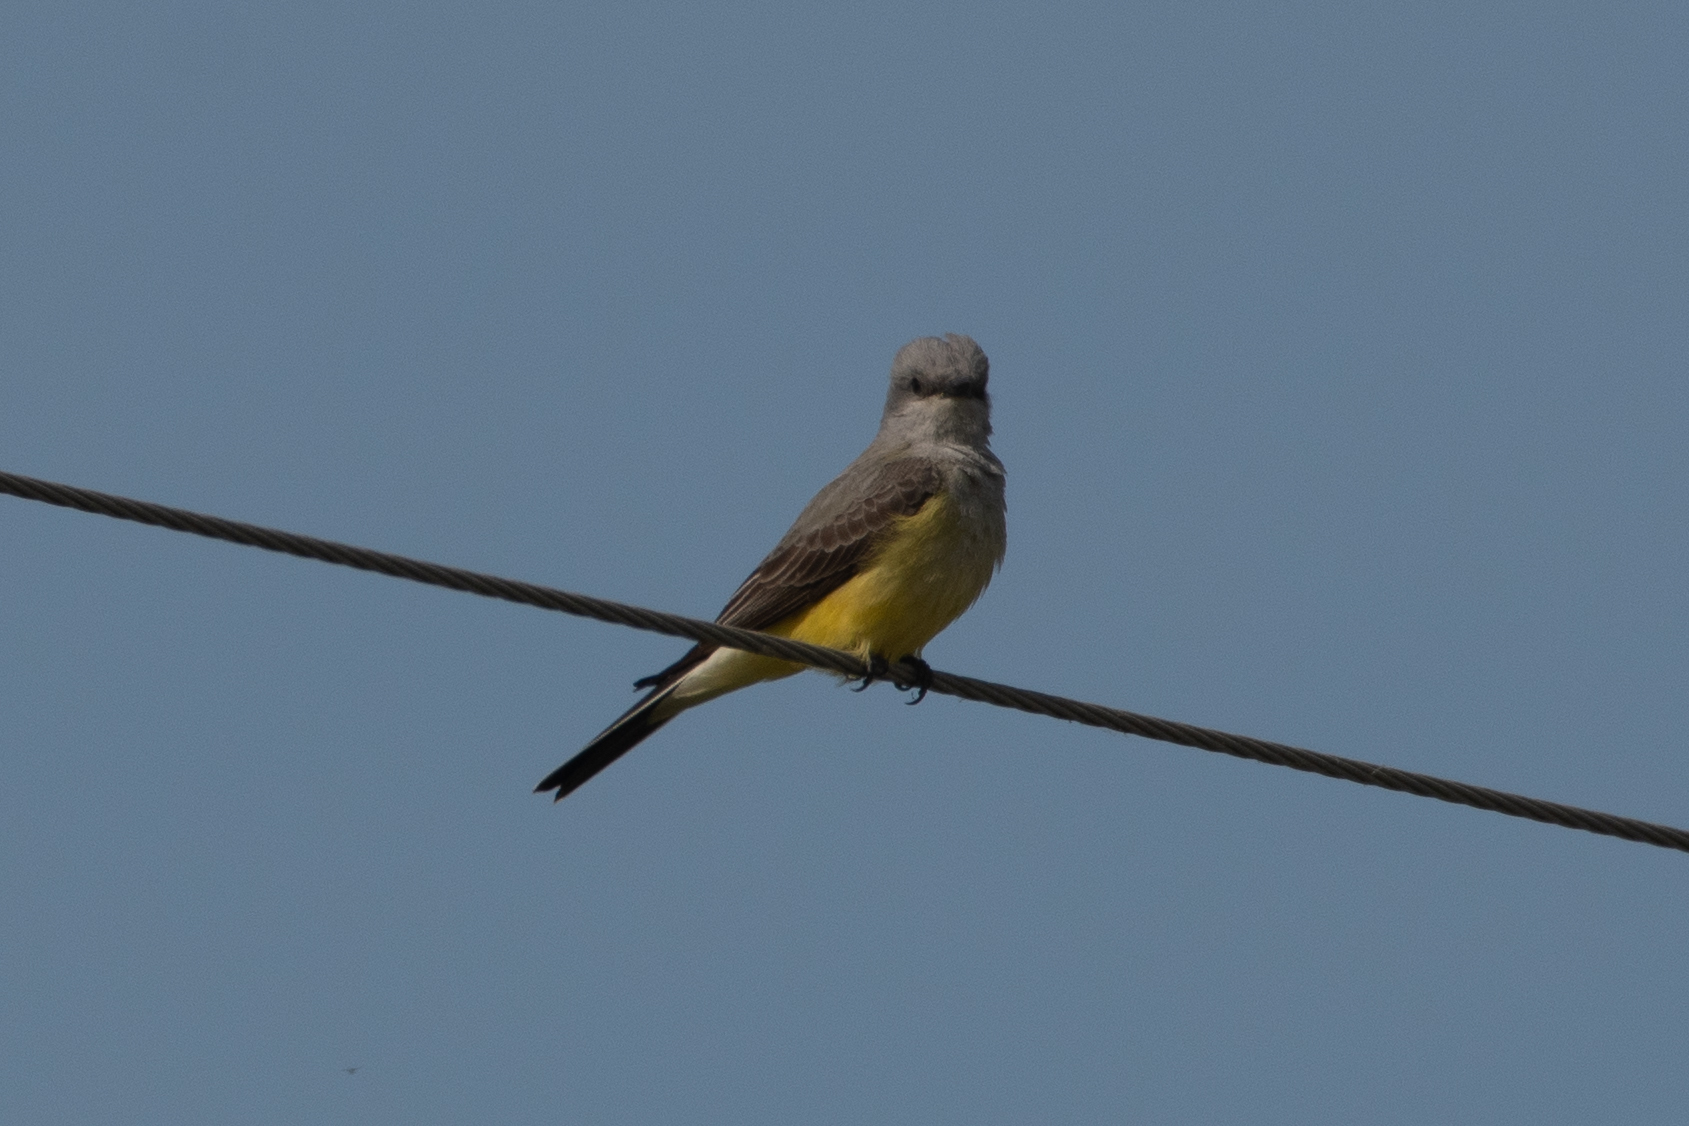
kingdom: Animalia
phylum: Chordata
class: Aves
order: Passeriformes
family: Tyrannidae
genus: Tyrannus
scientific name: Tyrannus verticalis
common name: Western kingbird
